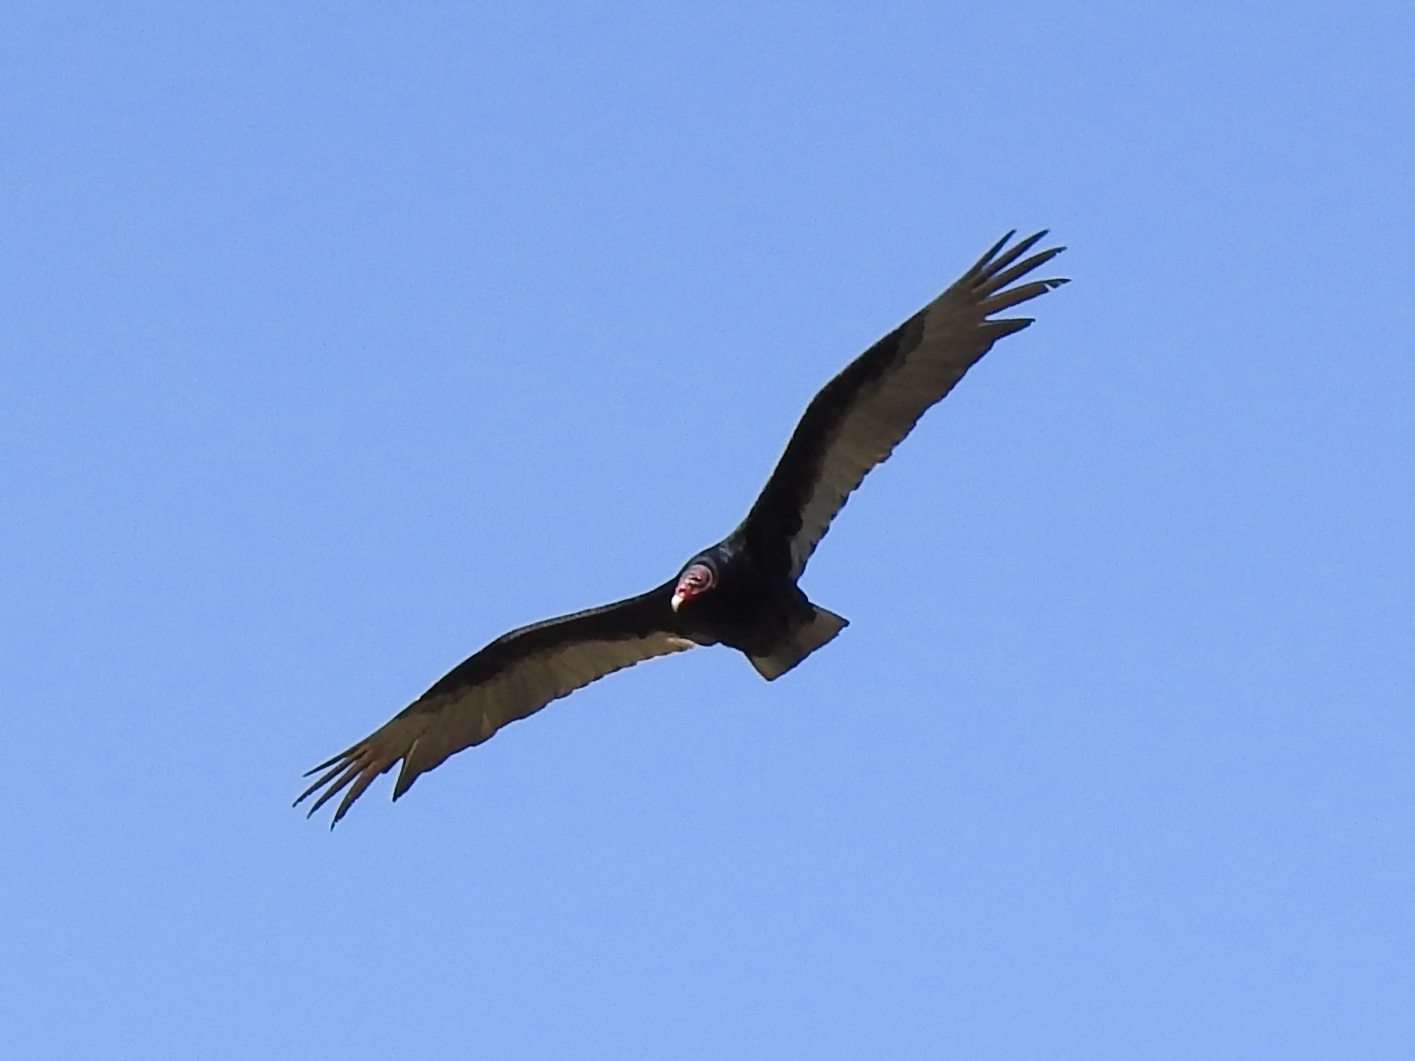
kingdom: Animalia
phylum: Chordata
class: Aves
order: Accipitriformes
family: Cathartidae
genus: Cathartes
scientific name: Cathartes aura
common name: Turkey vulture
